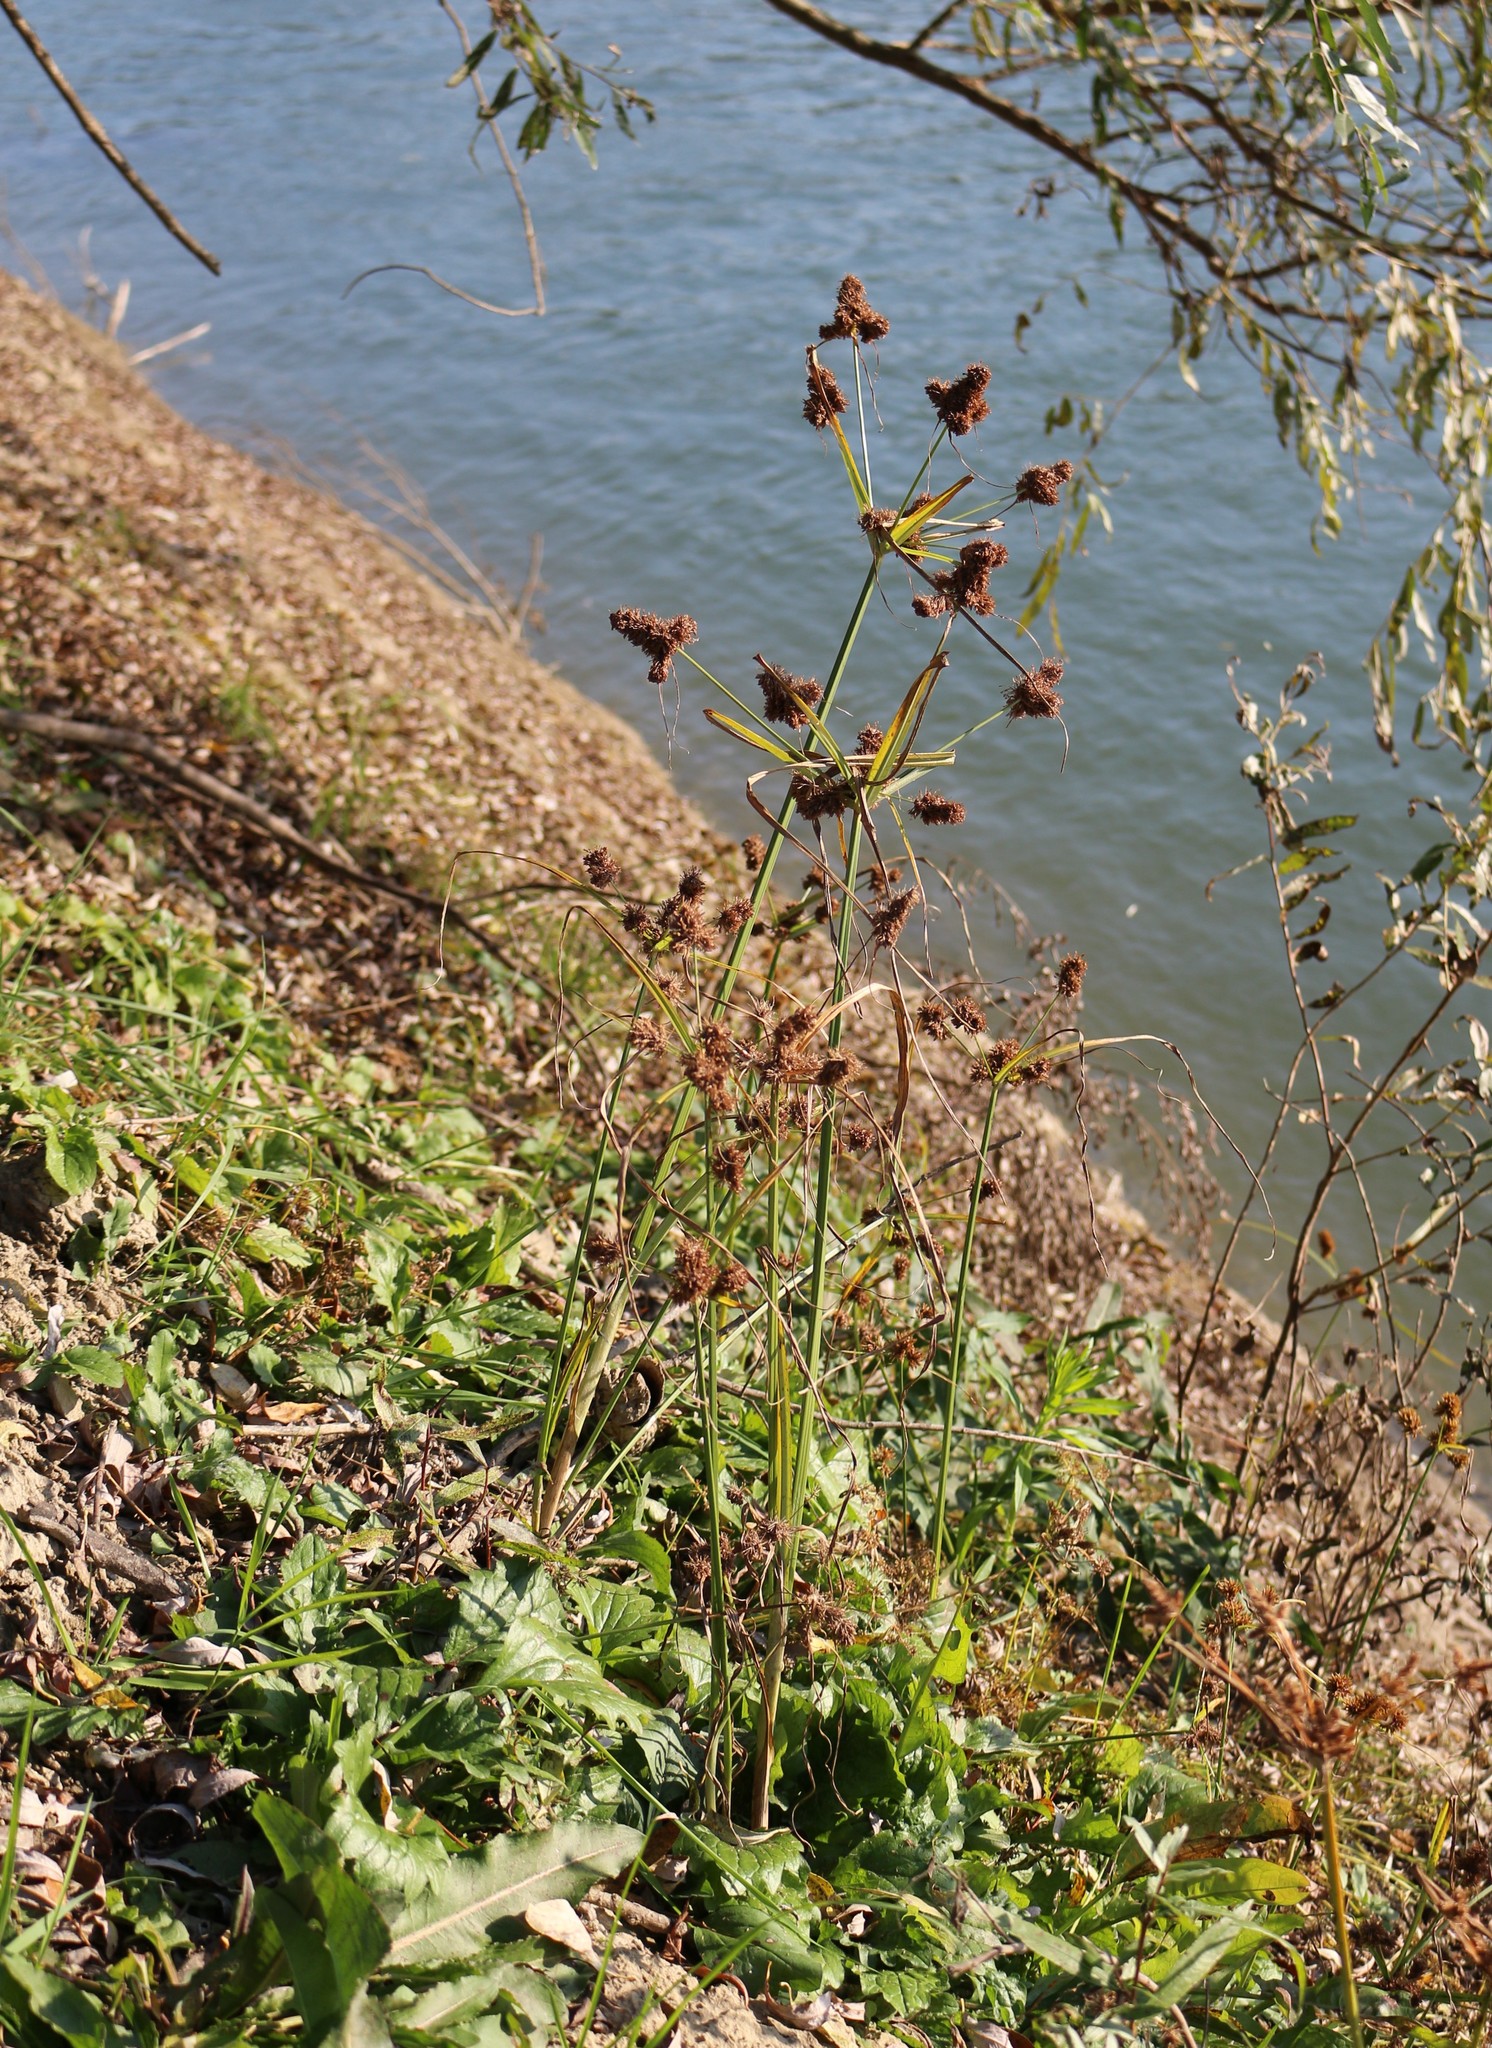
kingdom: Plantae
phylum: Tracheophyta
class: Liliopsida
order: Poales
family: Cyperaceae
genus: Cyperus
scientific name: Cyperus glomeratus
